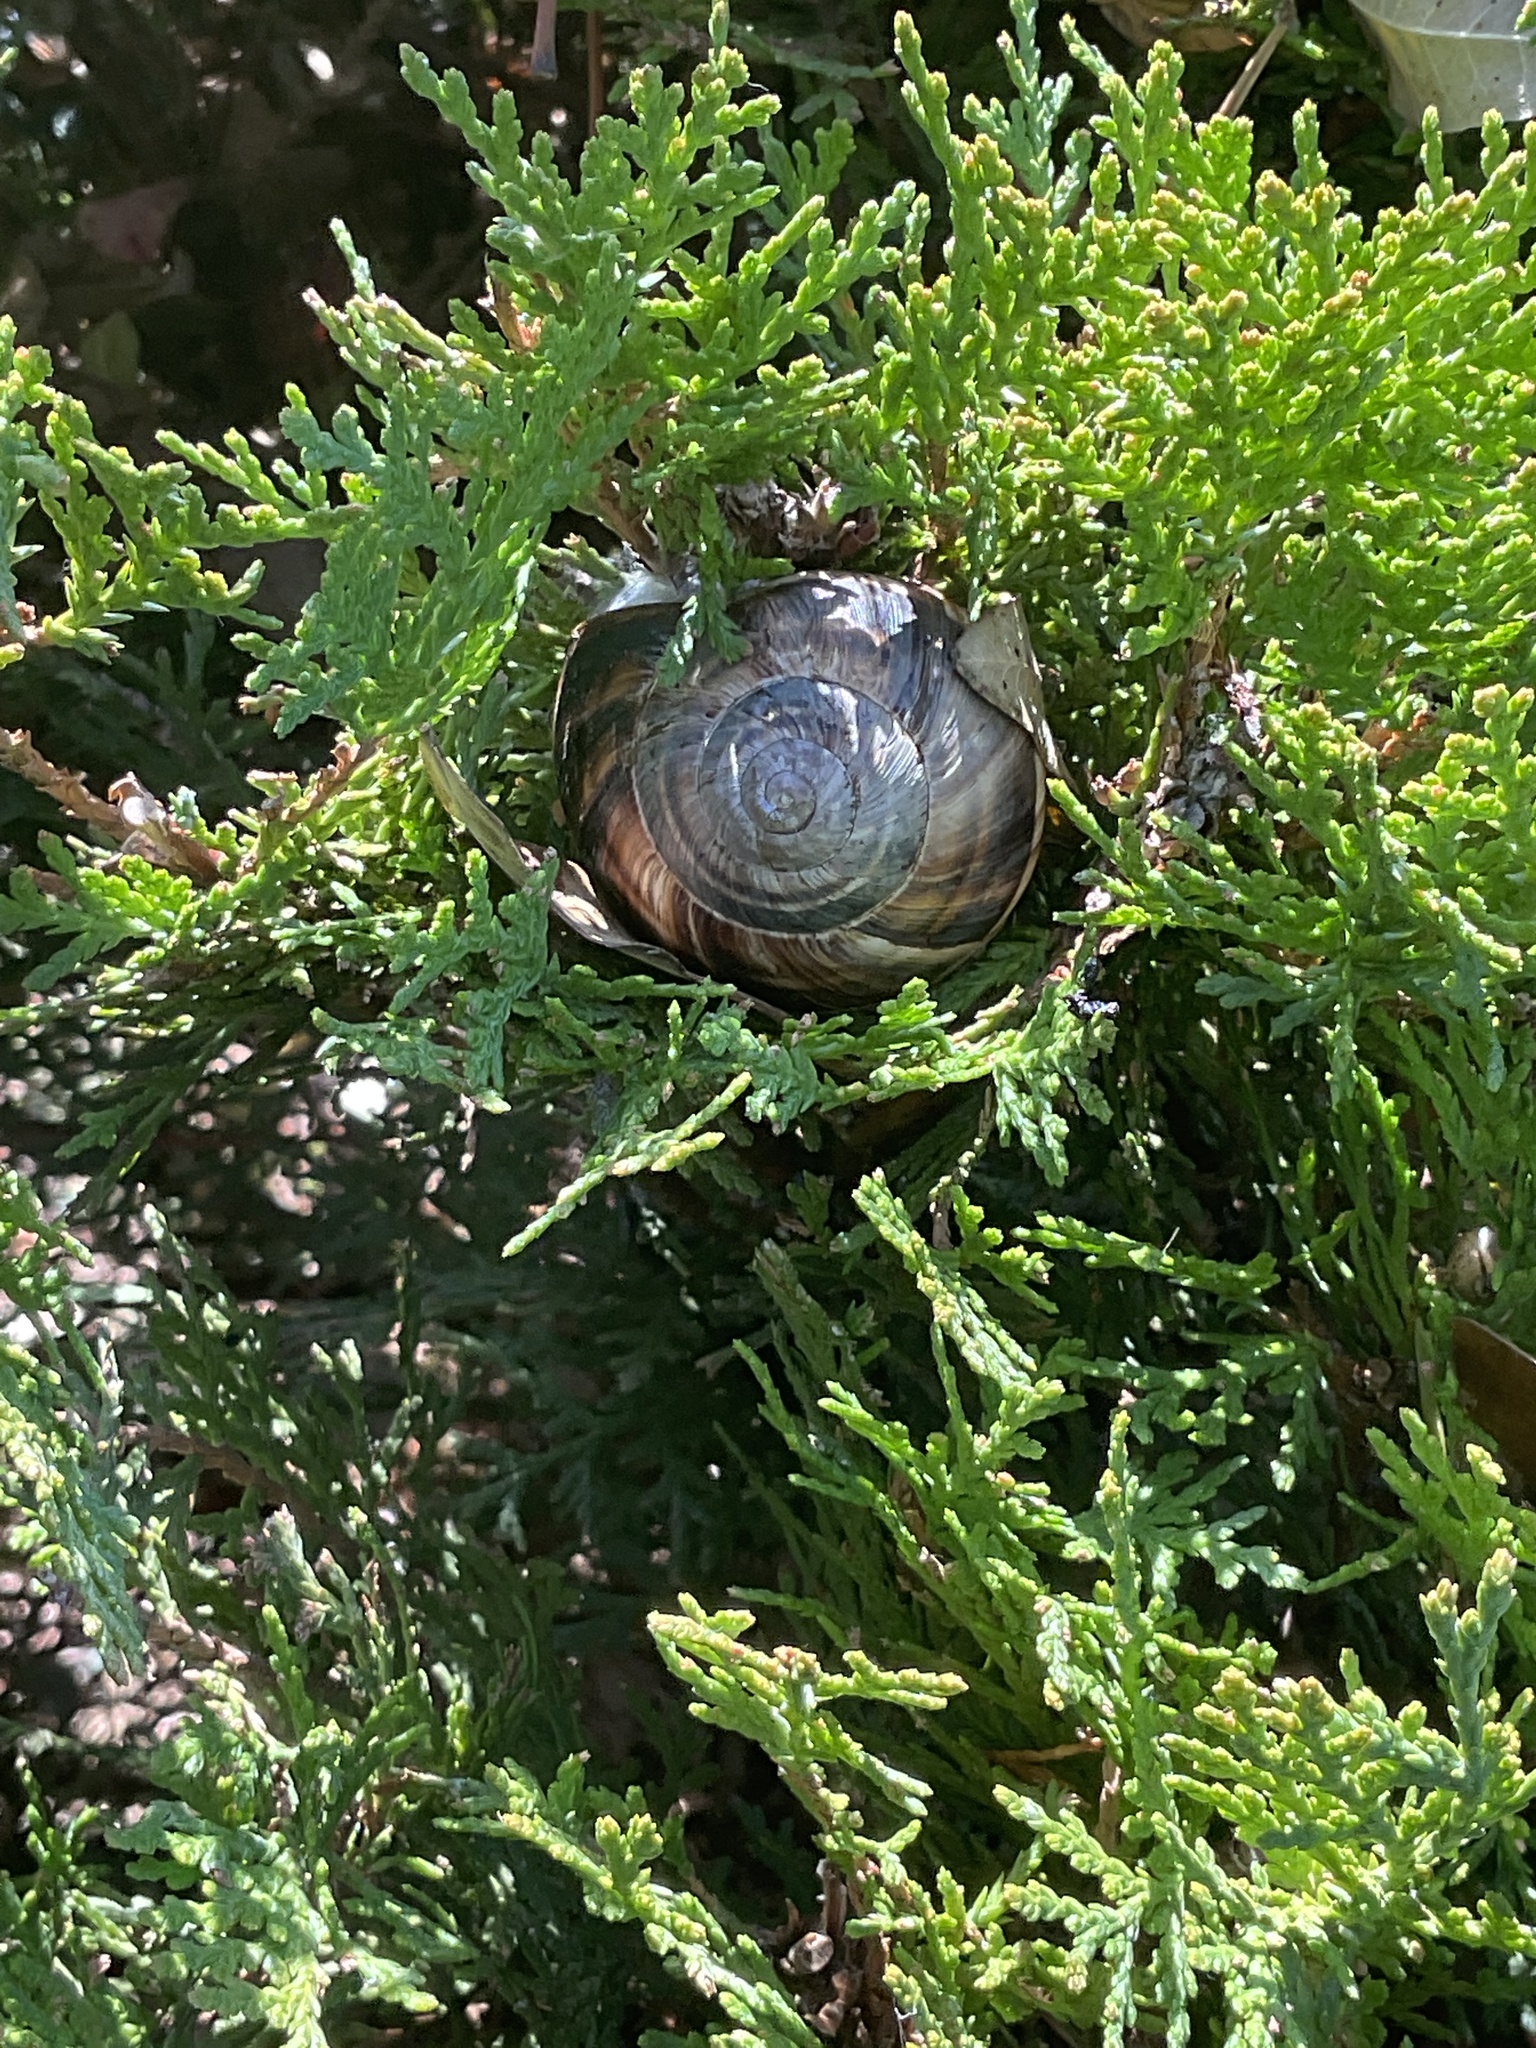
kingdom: Animalia
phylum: Mollusca
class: Gastropoda
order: Stylommatophora
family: Helicidae
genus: Helix
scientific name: Helix lucorum
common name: Turkish snail
